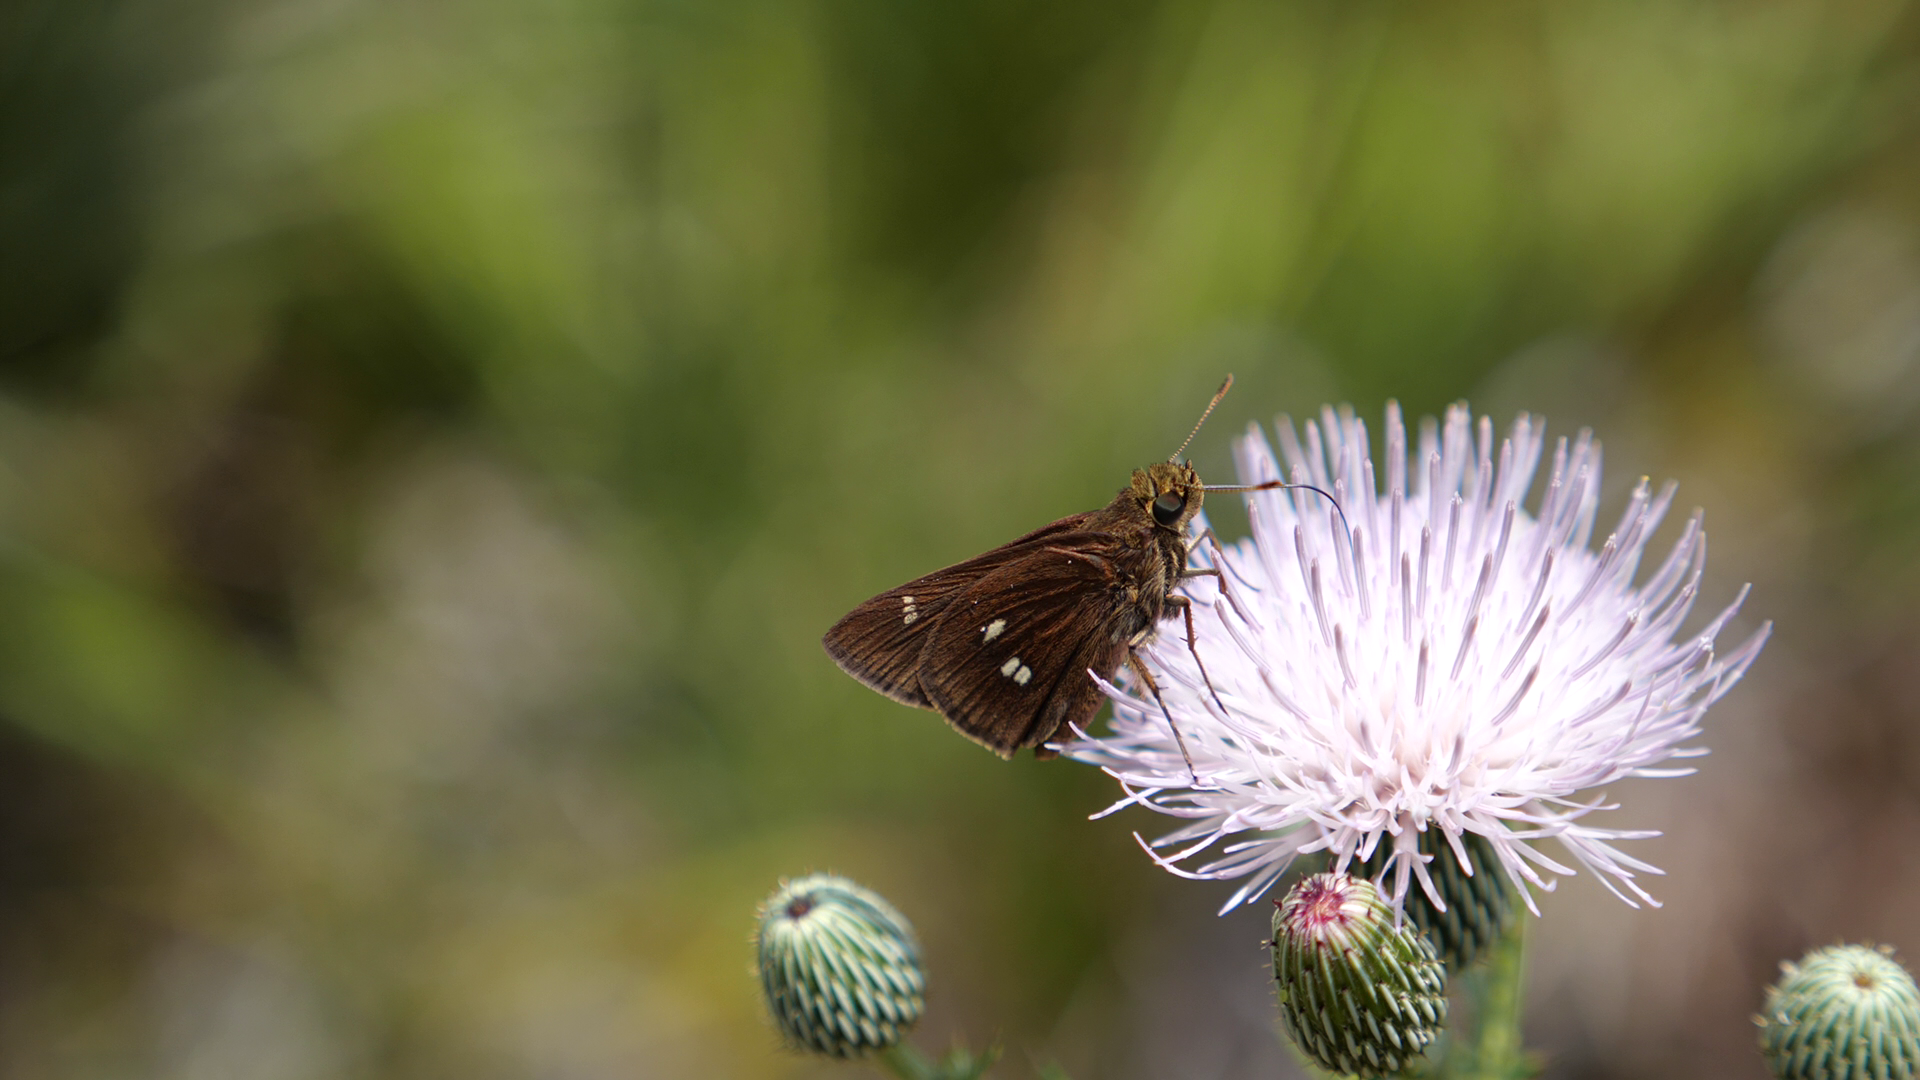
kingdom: Animalia
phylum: Arthropoda
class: Insecta
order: Lepidoptera
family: Hesperiidae
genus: Oligoria
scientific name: Oligoria maculata
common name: Twin-spot skipper
